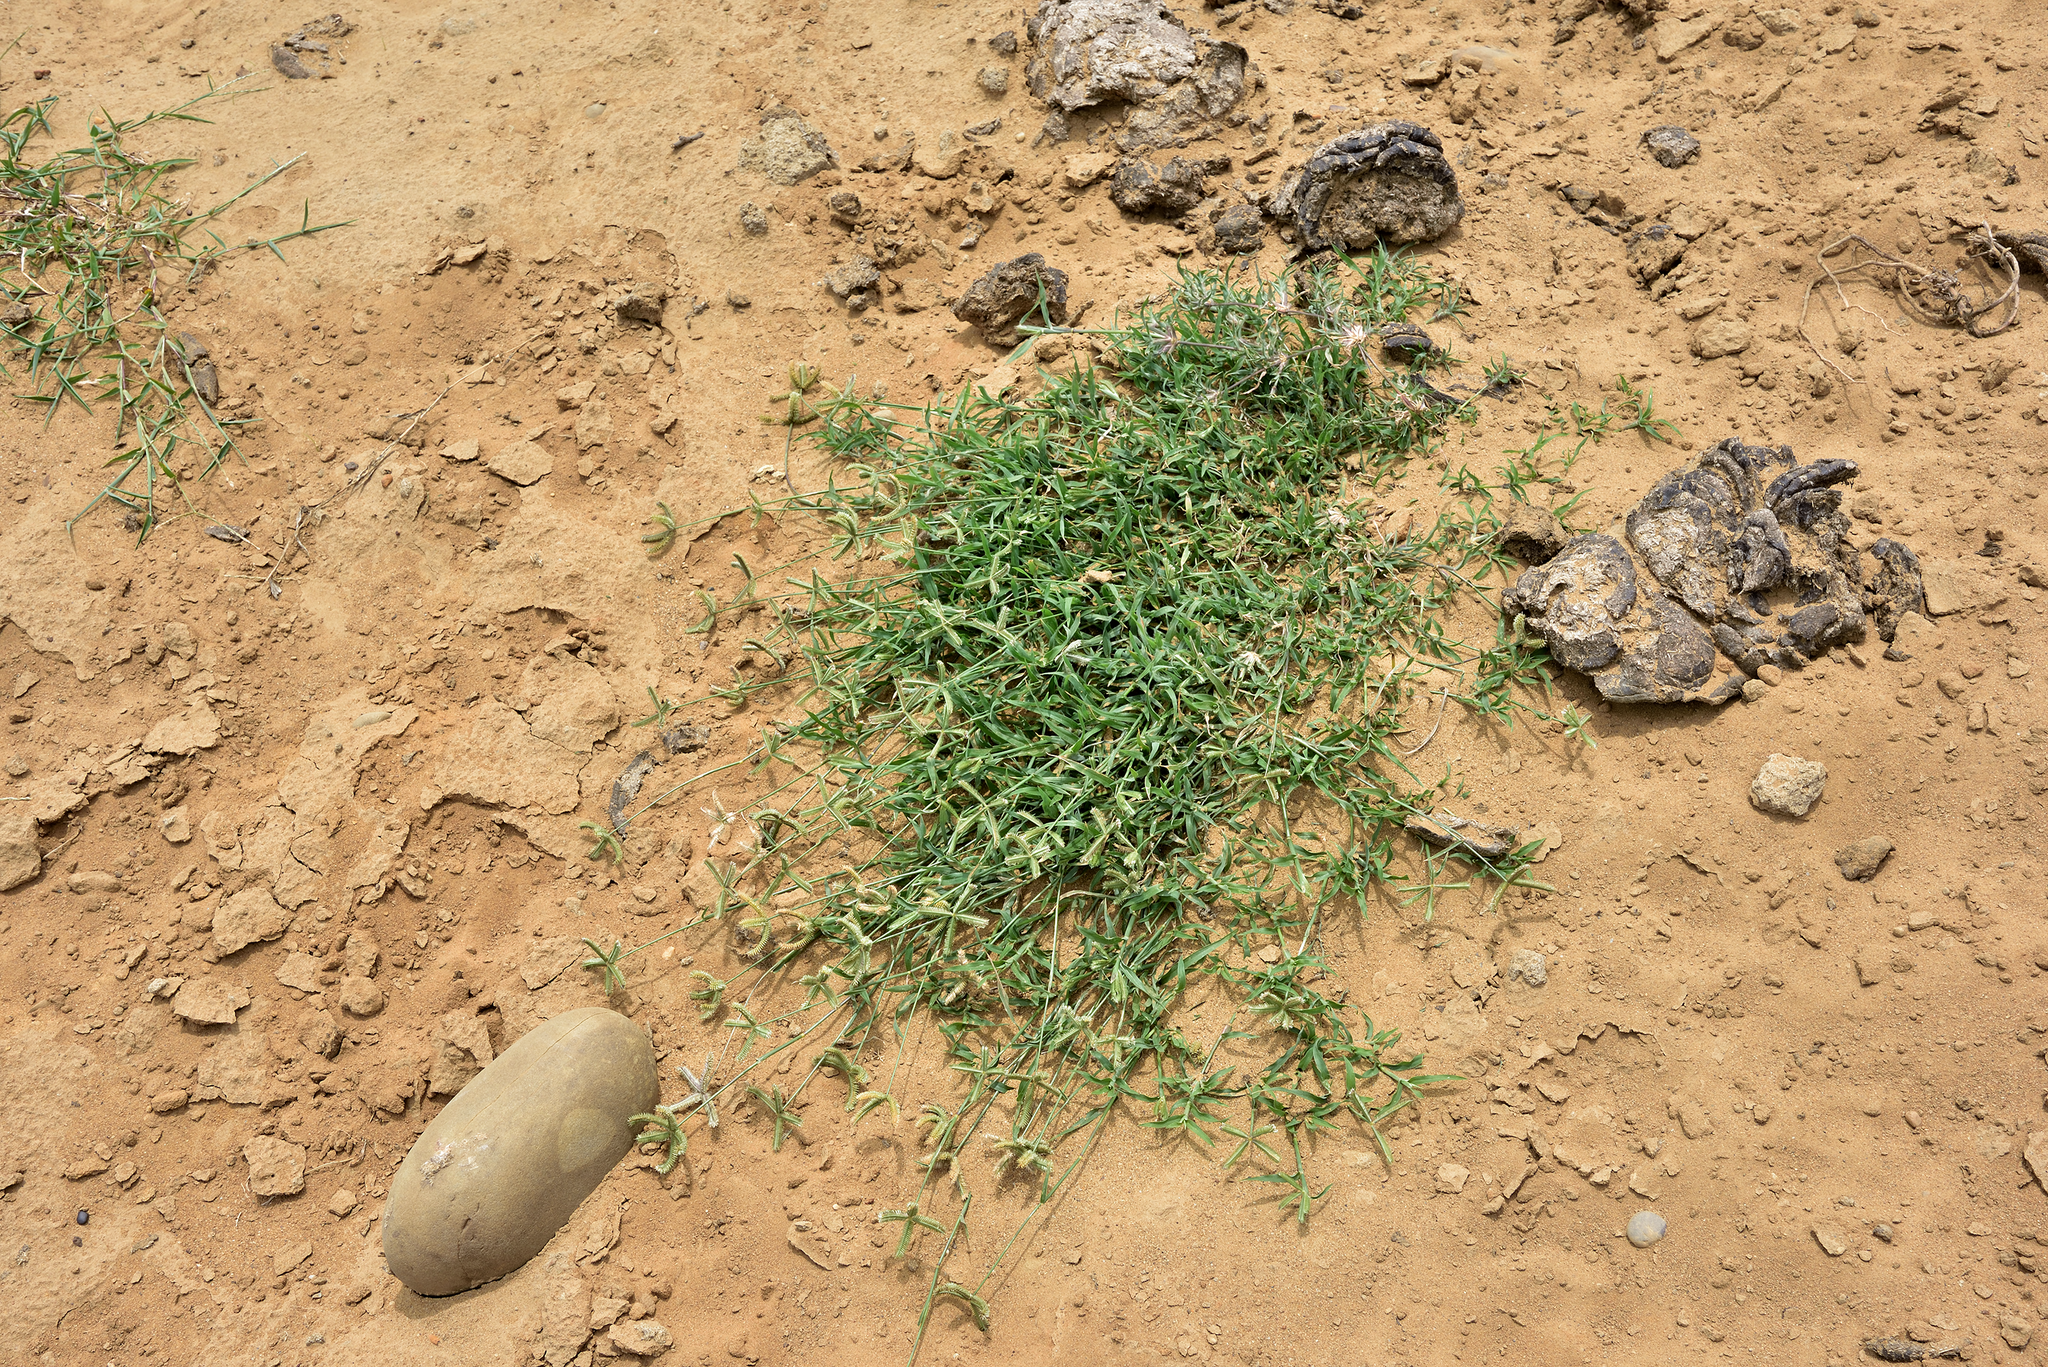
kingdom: Plantae
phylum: Tracheophyta
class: Liliopsida
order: Poales
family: Poaceae
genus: Dactyloctenium
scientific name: Dactyloctenium aegyptium
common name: Egyptian grass
